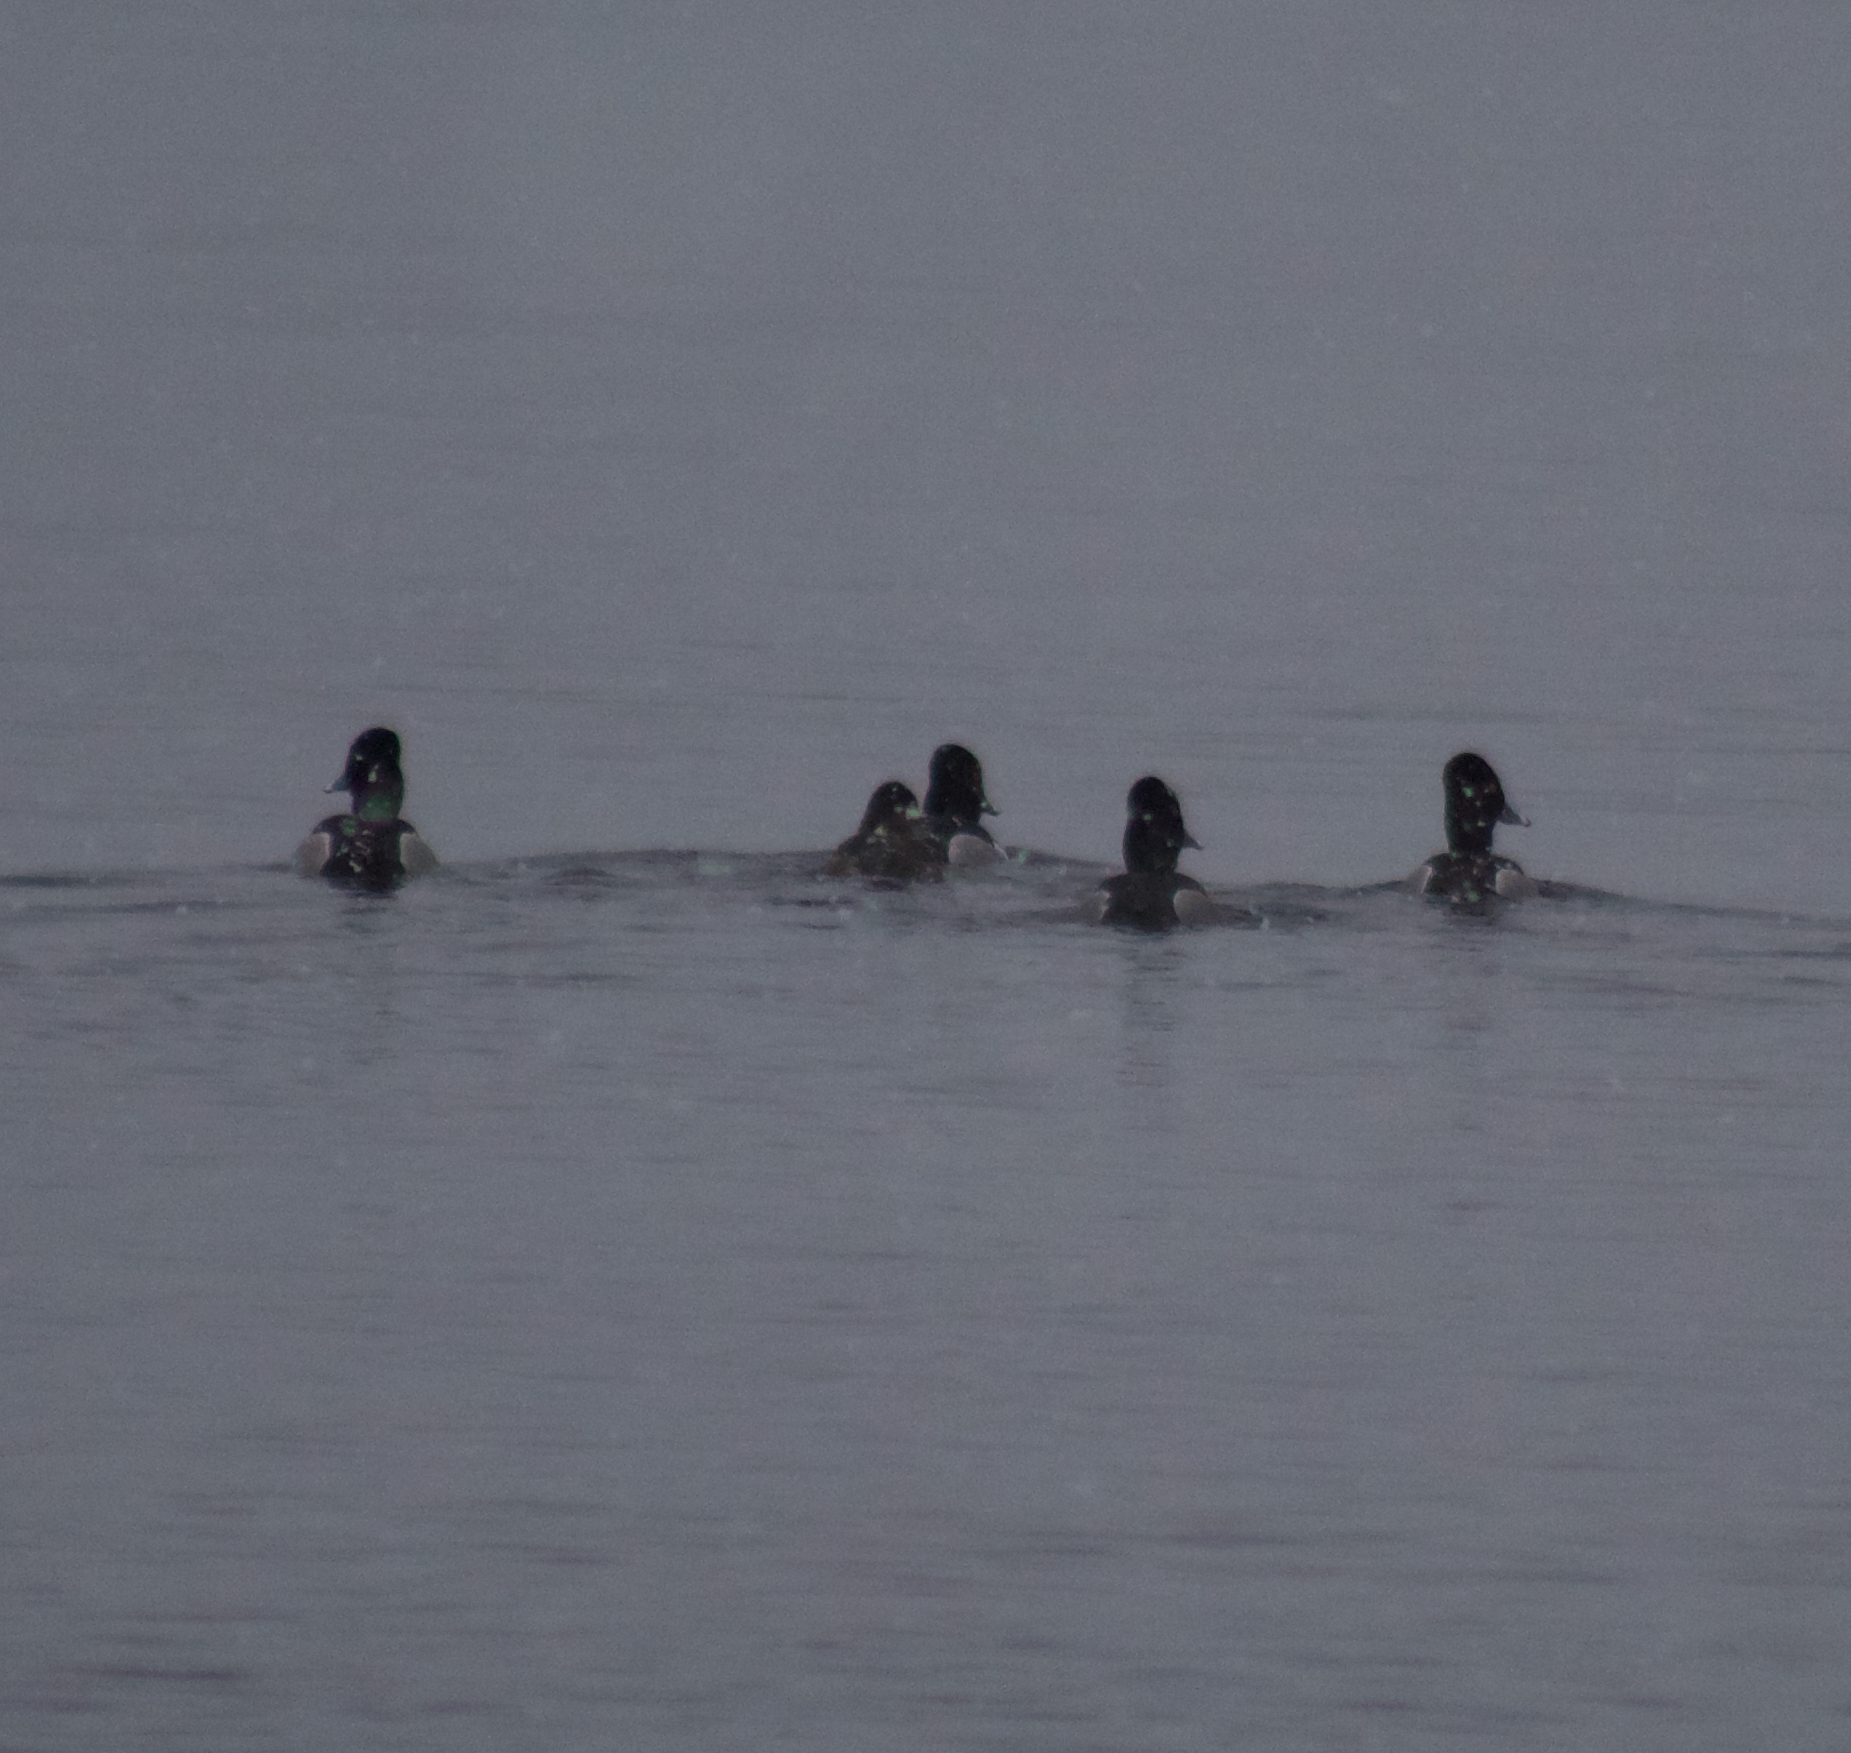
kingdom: Animalia
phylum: Chordata
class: Aves
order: Anseriformes
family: Anatidae
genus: Aythya
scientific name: Aythya collaris
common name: Ring-necked duck
